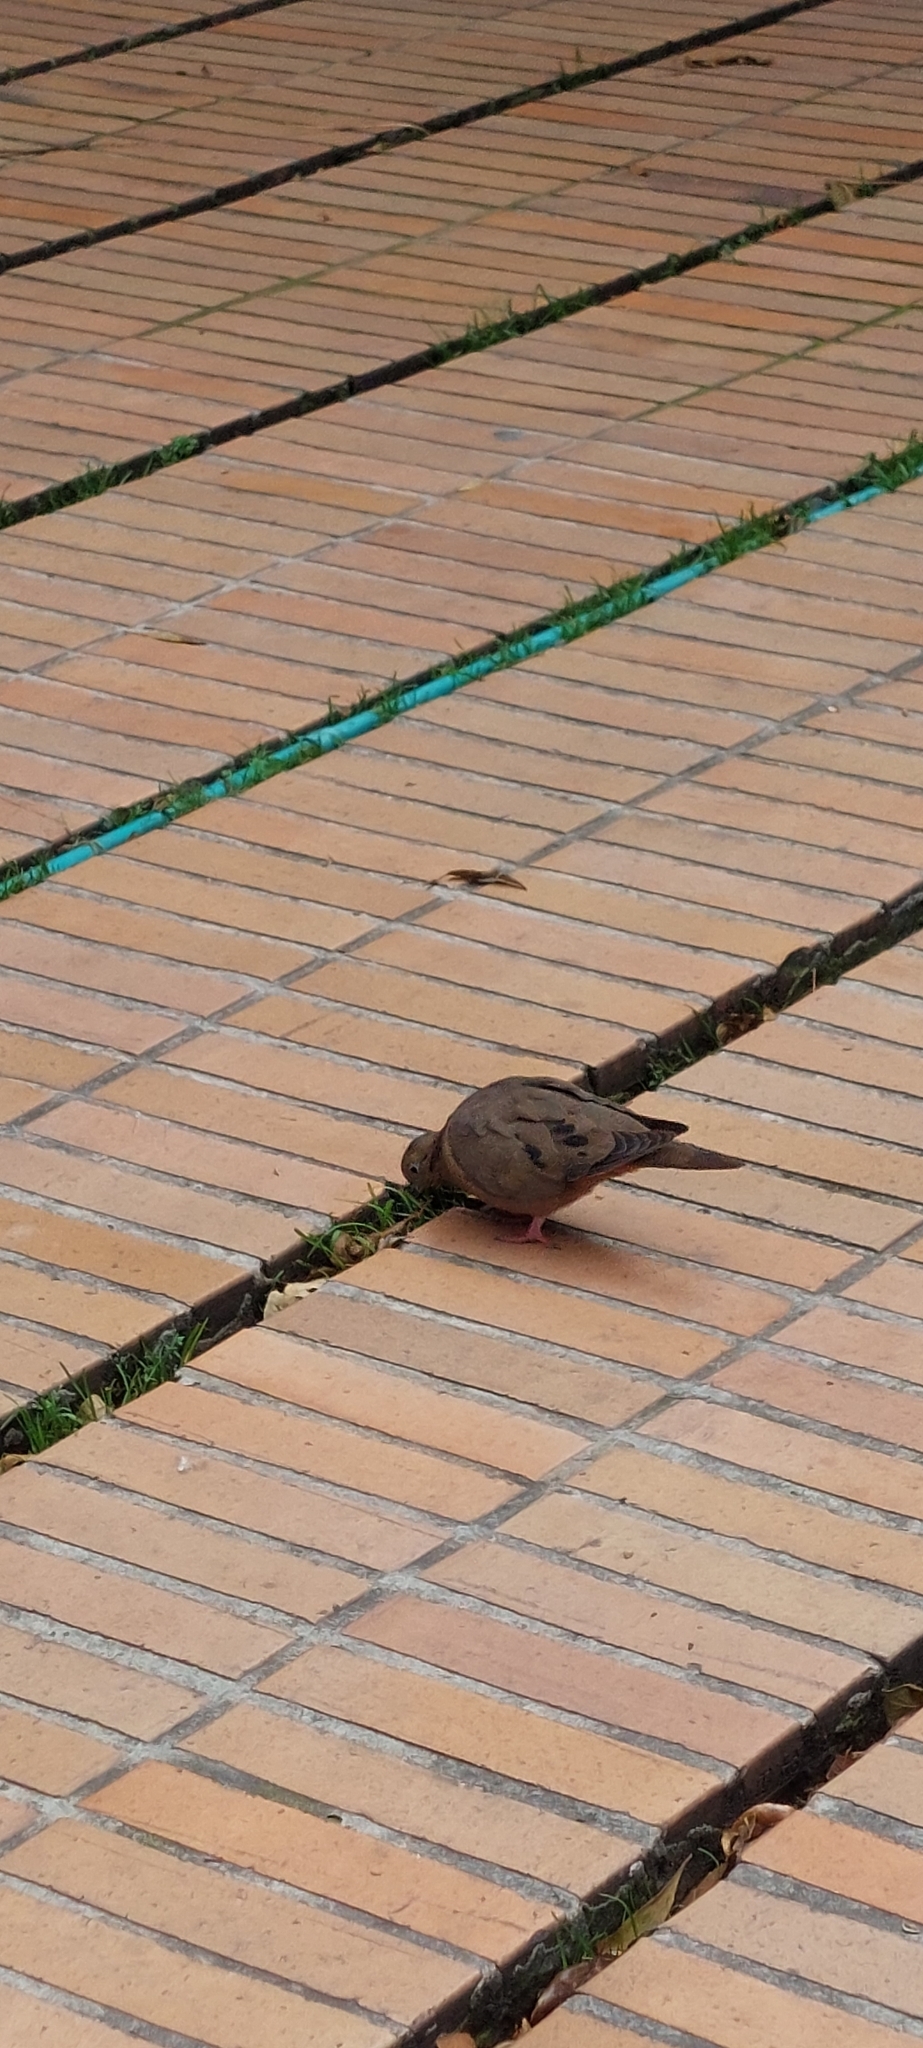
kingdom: Animalia
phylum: Chordata
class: Aves
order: Columbiformes
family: Columbidae
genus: Zenaida
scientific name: Zenaida auriculata
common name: Eared dove
